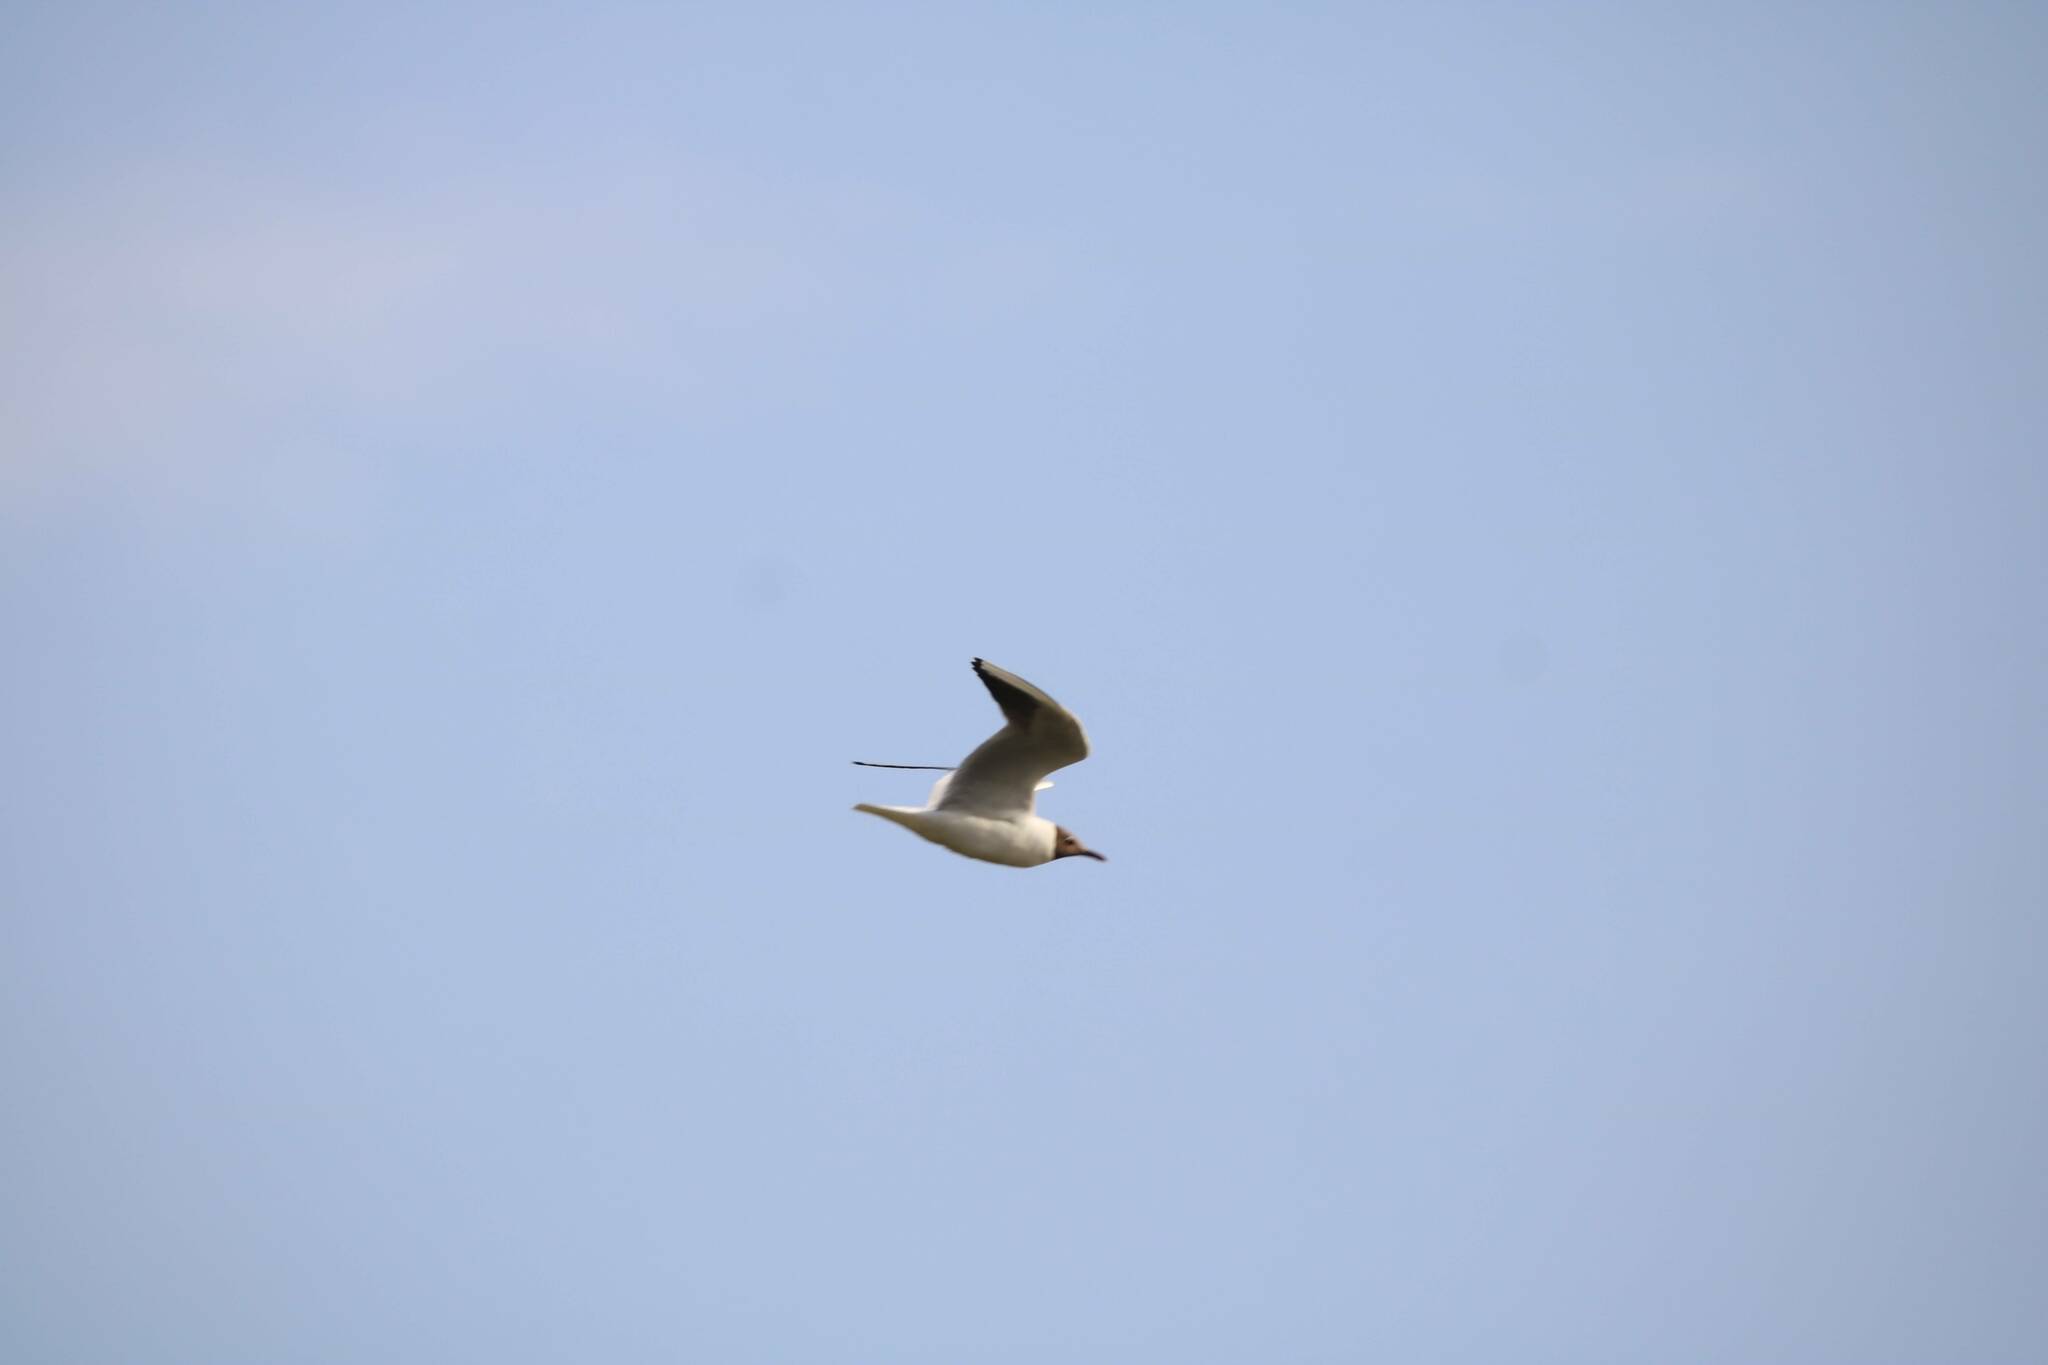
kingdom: Animalia
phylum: Chordata
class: Aves
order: Charadriiformes
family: Laridae
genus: Chroicocephalus
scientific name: Chroicocephalus ridibundus
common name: Black-headed gull
